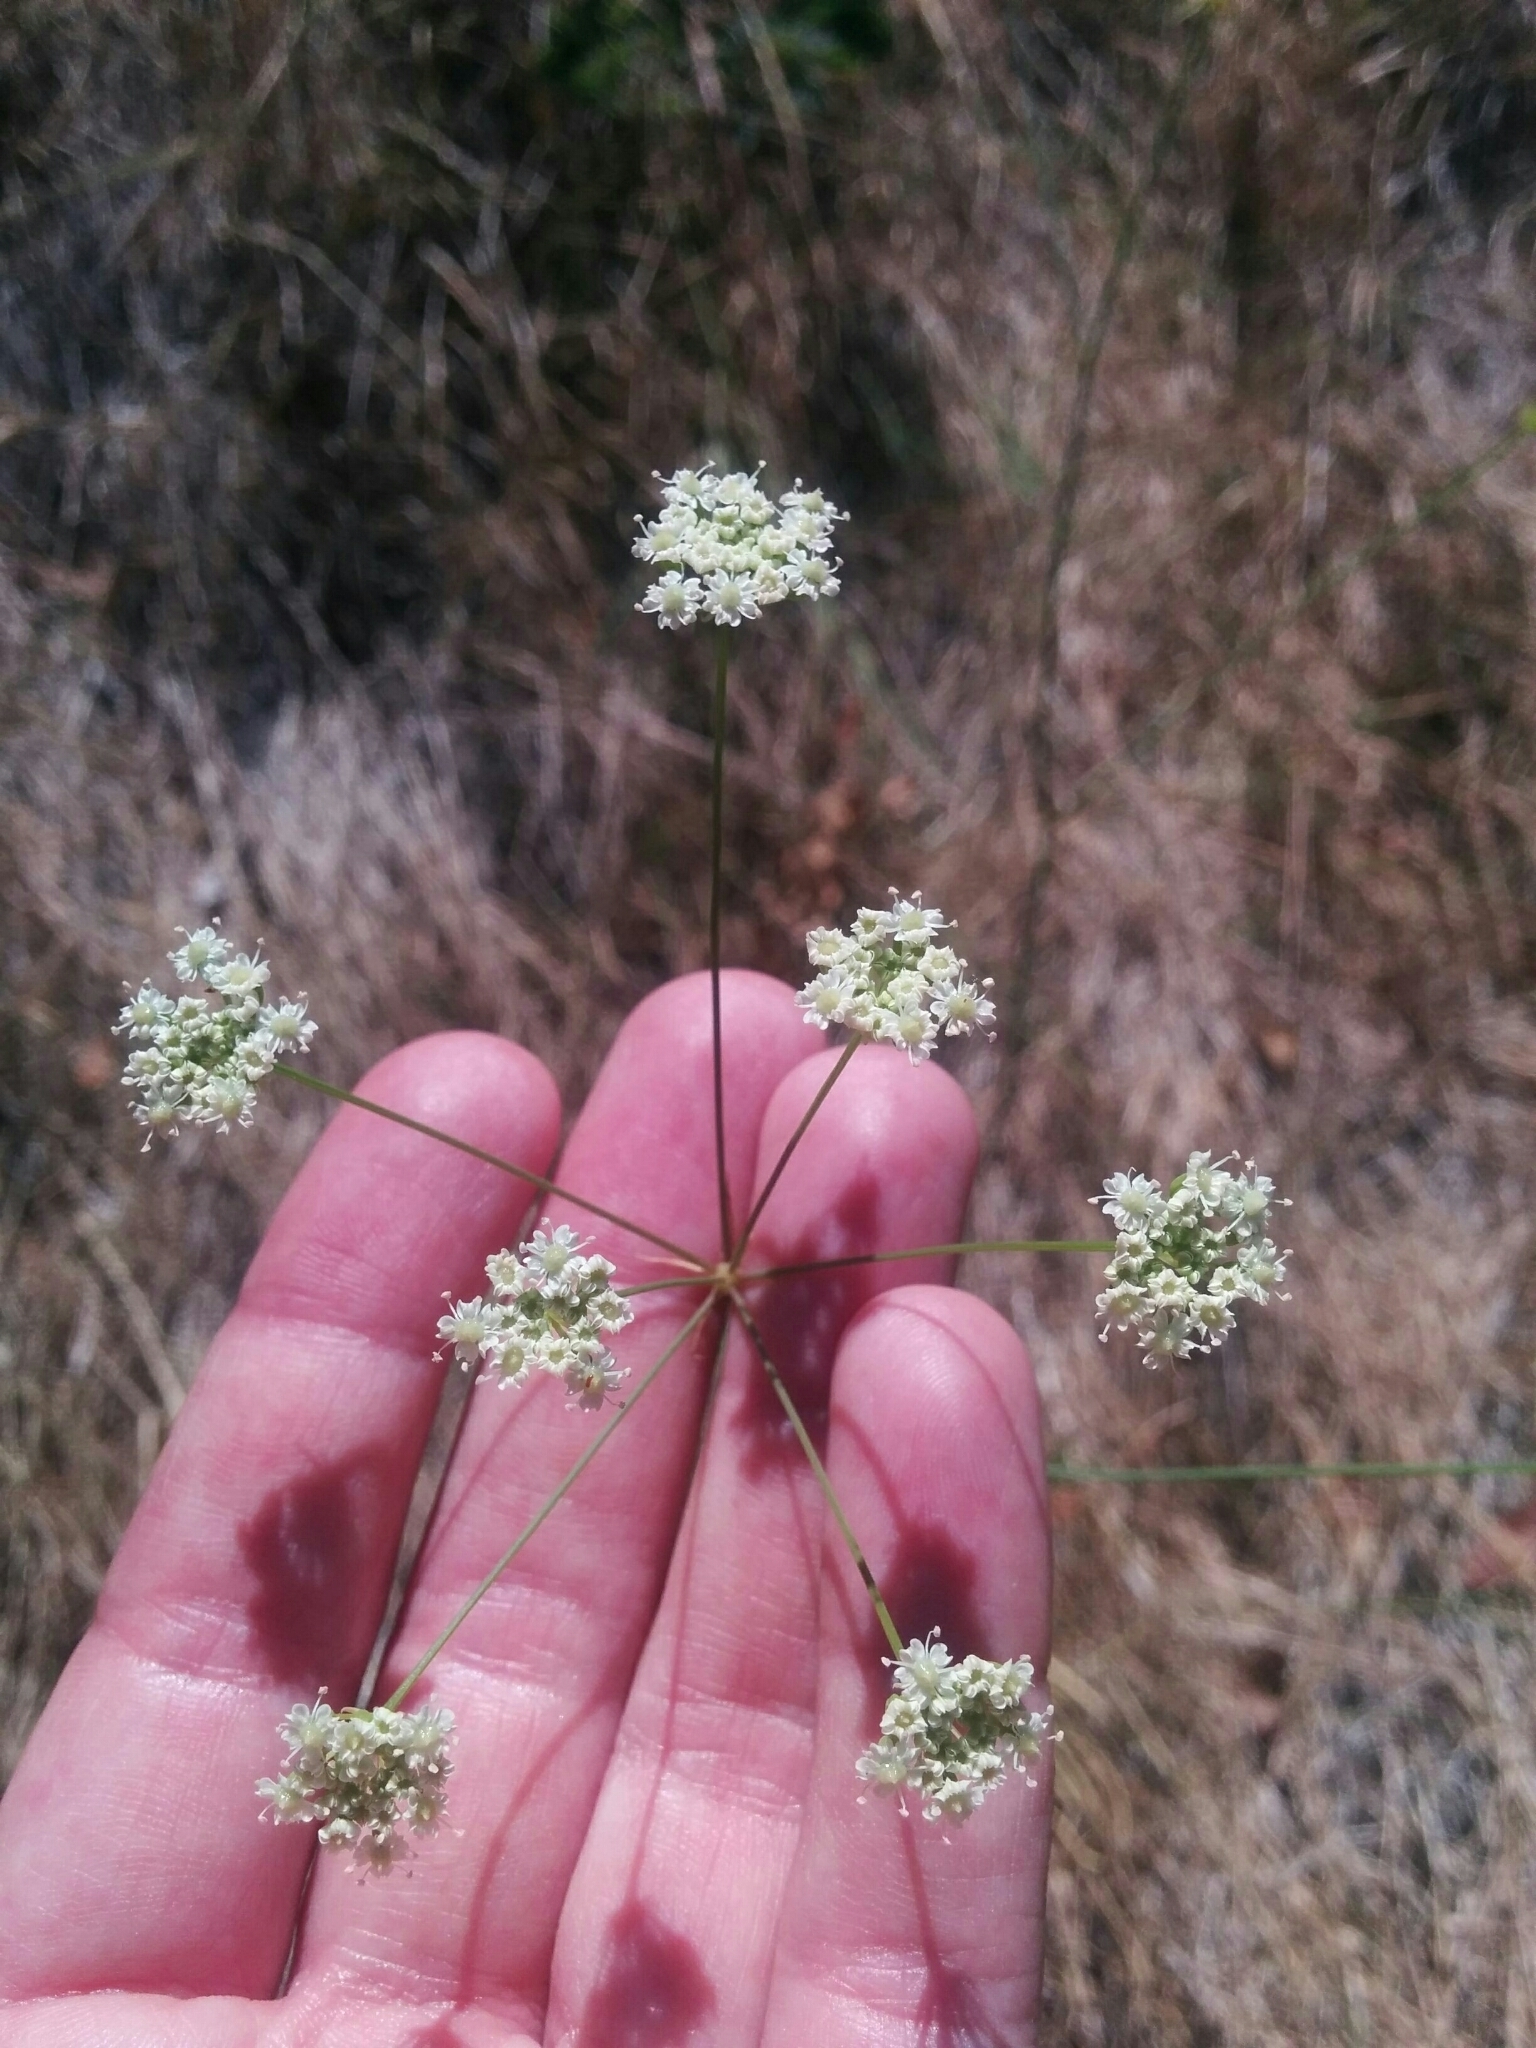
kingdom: Plantae
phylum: Tracheophyta
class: Magnoliopsida
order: Apiales
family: Apiaceae
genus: Perideridia
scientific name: Perideridia kelloggii
